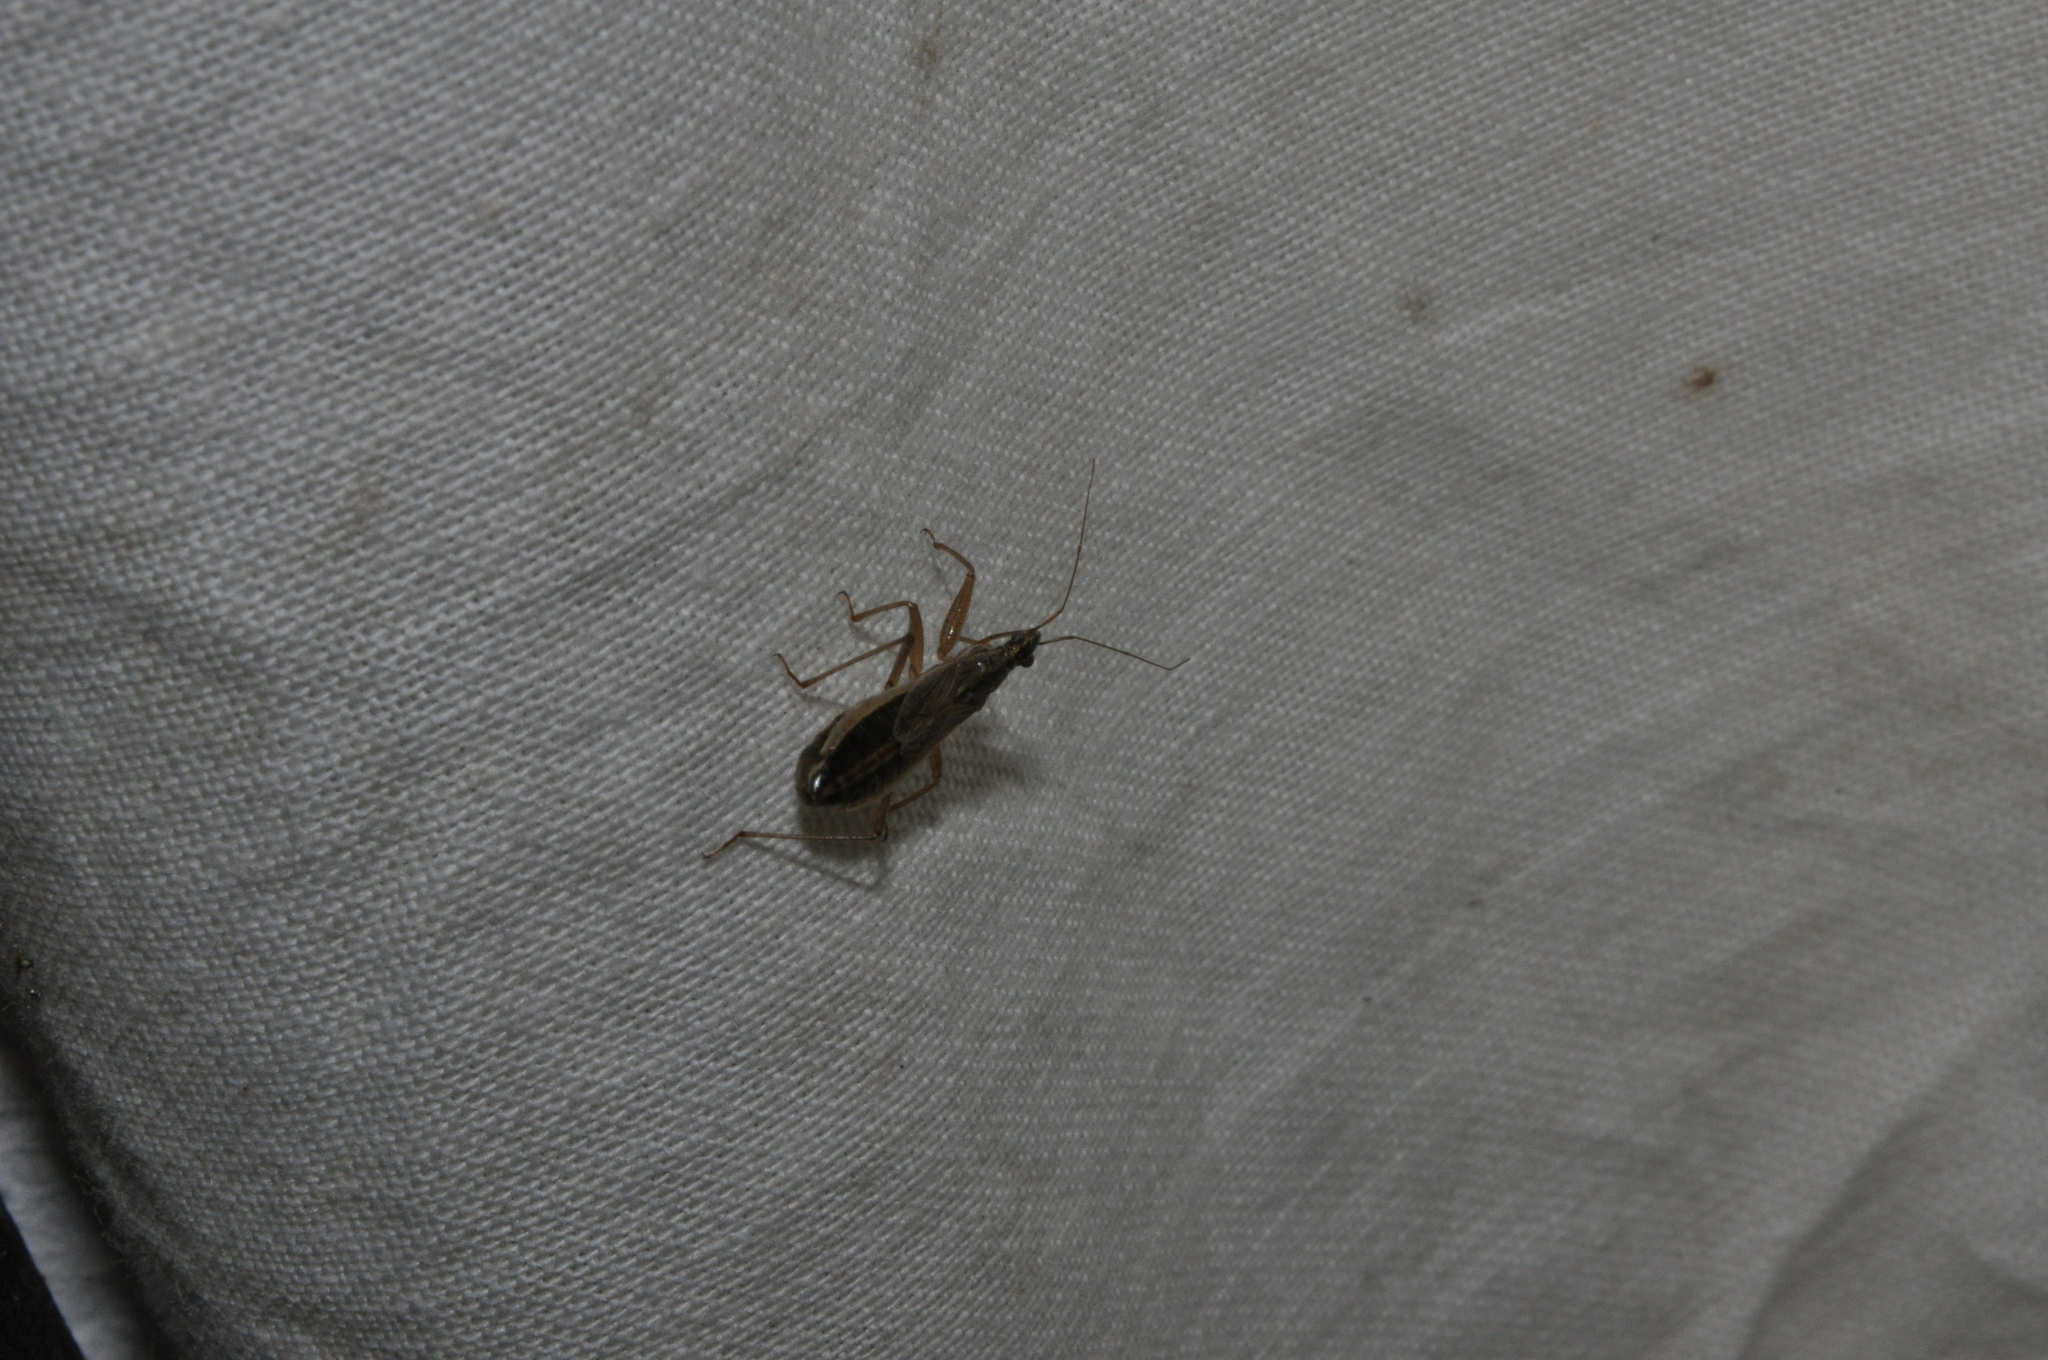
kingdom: Animalia
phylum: Arthropoda
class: Insecta
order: Hemiptera
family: Nabidae
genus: Nabis
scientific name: Nabis flavomarginatus
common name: Broad damselbug
